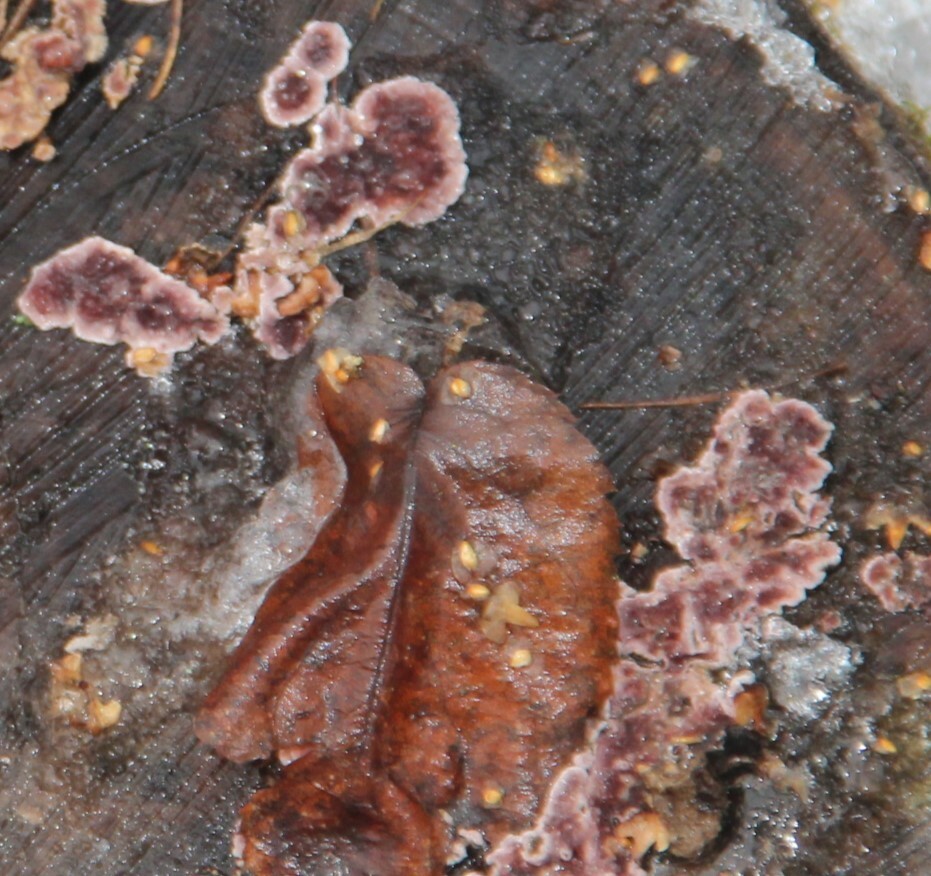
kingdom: Fungi
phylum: Basidiomycota
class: Agaricomycetes
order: Agaricales
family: Cyphellaceae
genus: Chondrostereum
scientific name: Chondrostereum purpureum
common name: Silver leaf disease
